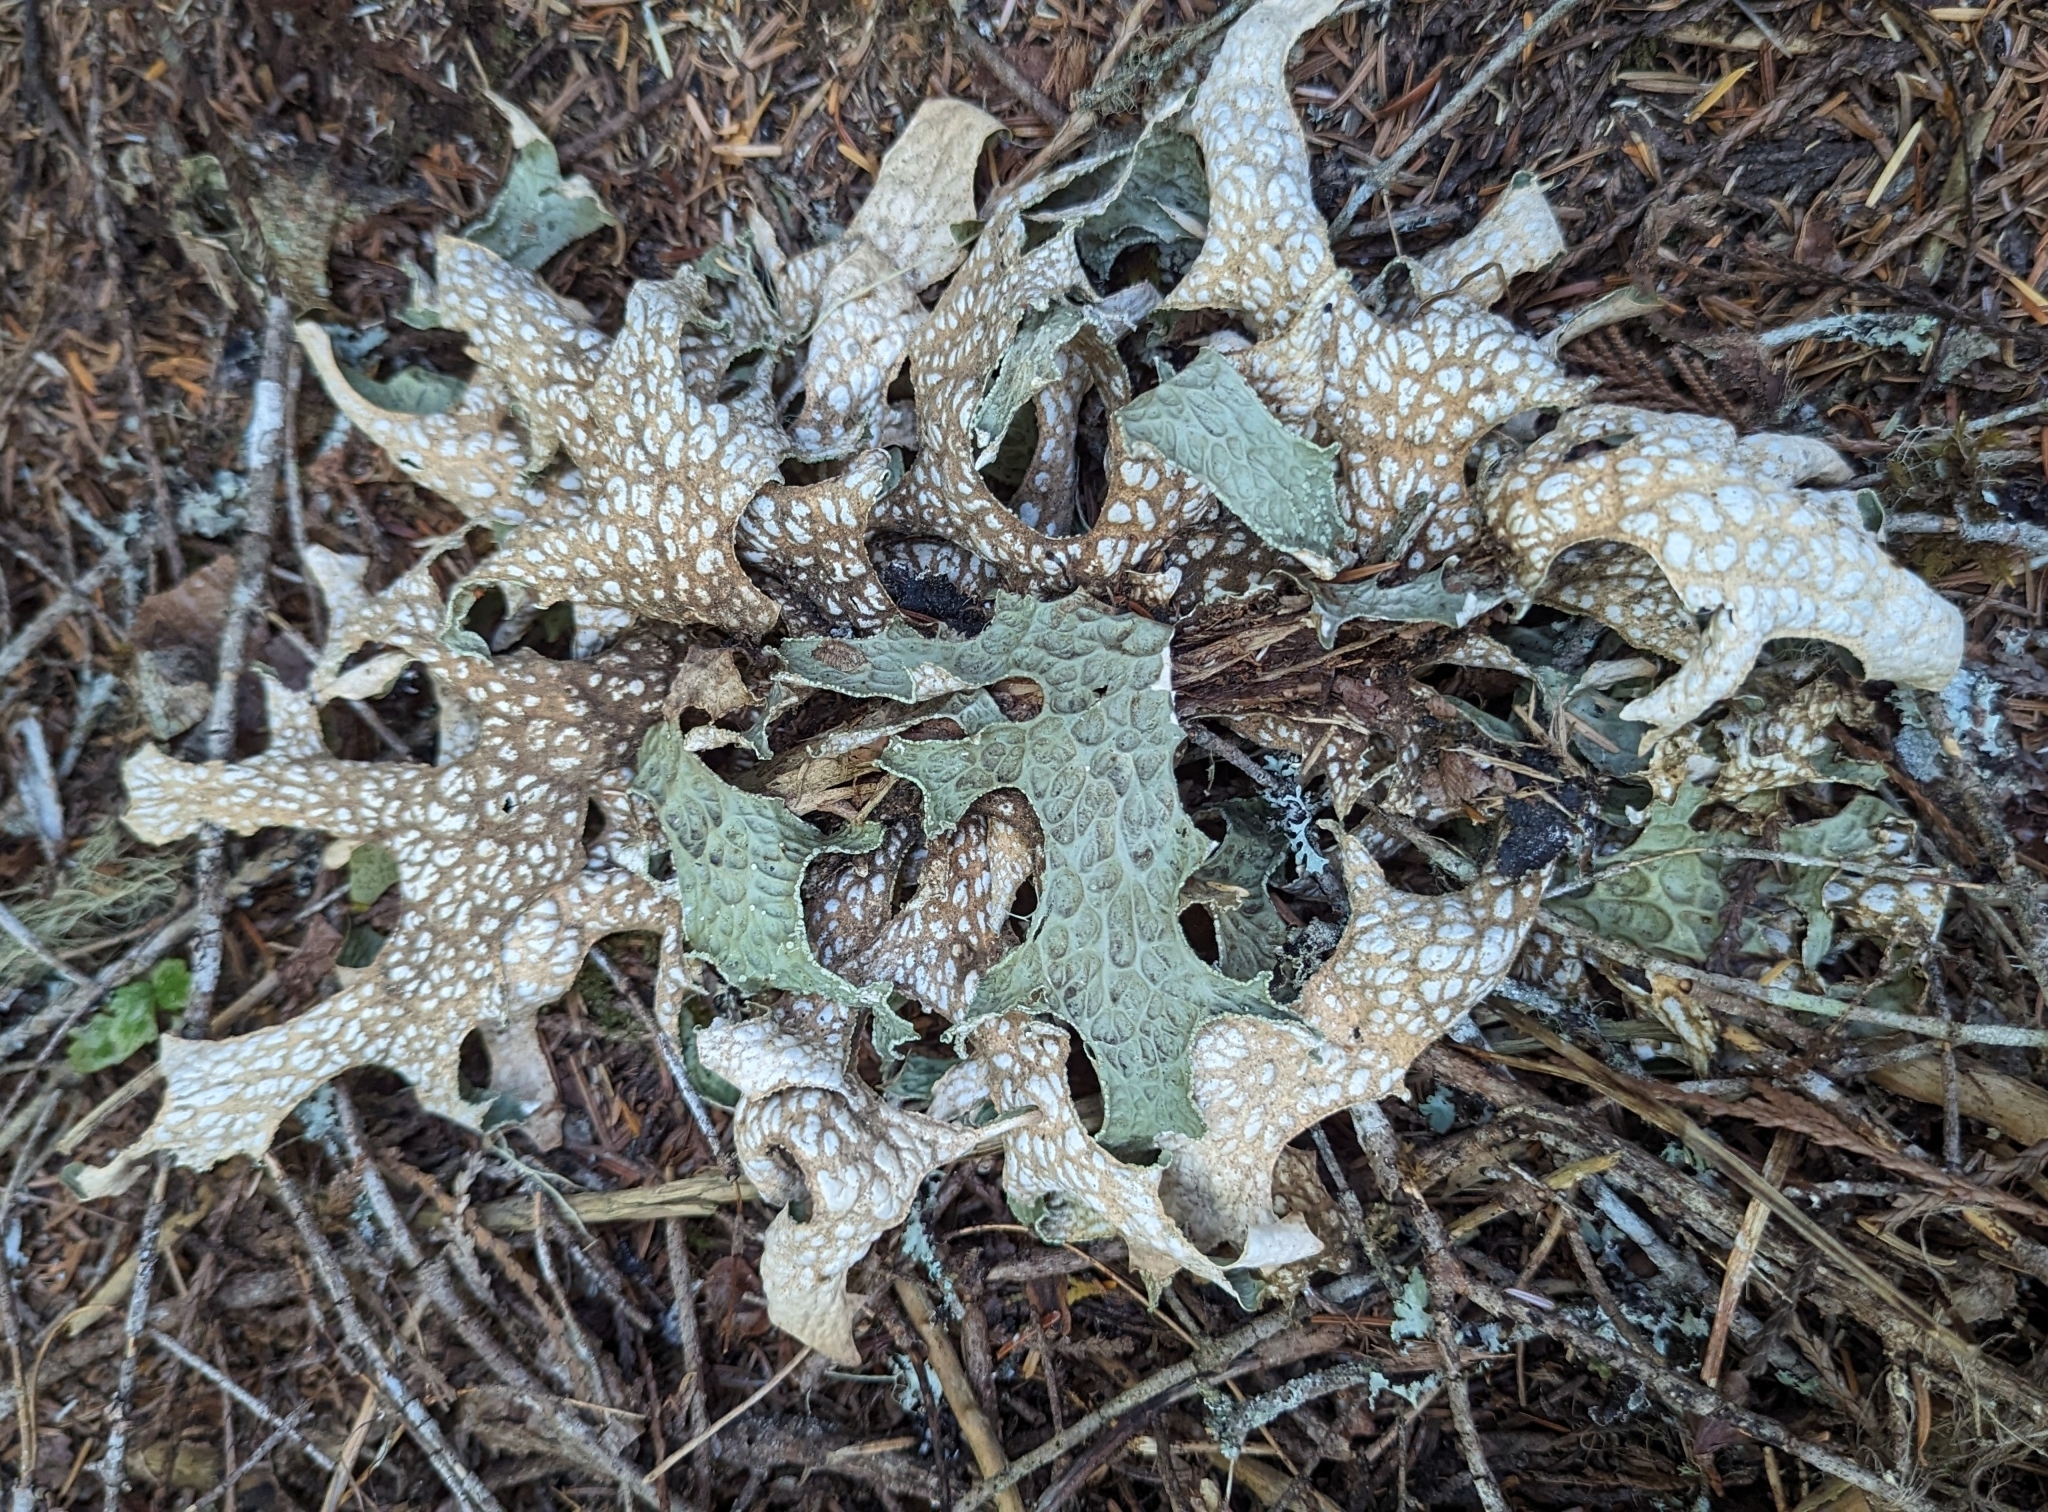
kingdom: Fungi
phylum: Ascomycota
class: Lecanoromycetes
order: Peltigerales
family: Lobariaceae
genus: Lobaria
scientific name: Lobaria pulmonaria
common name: Lungwort
